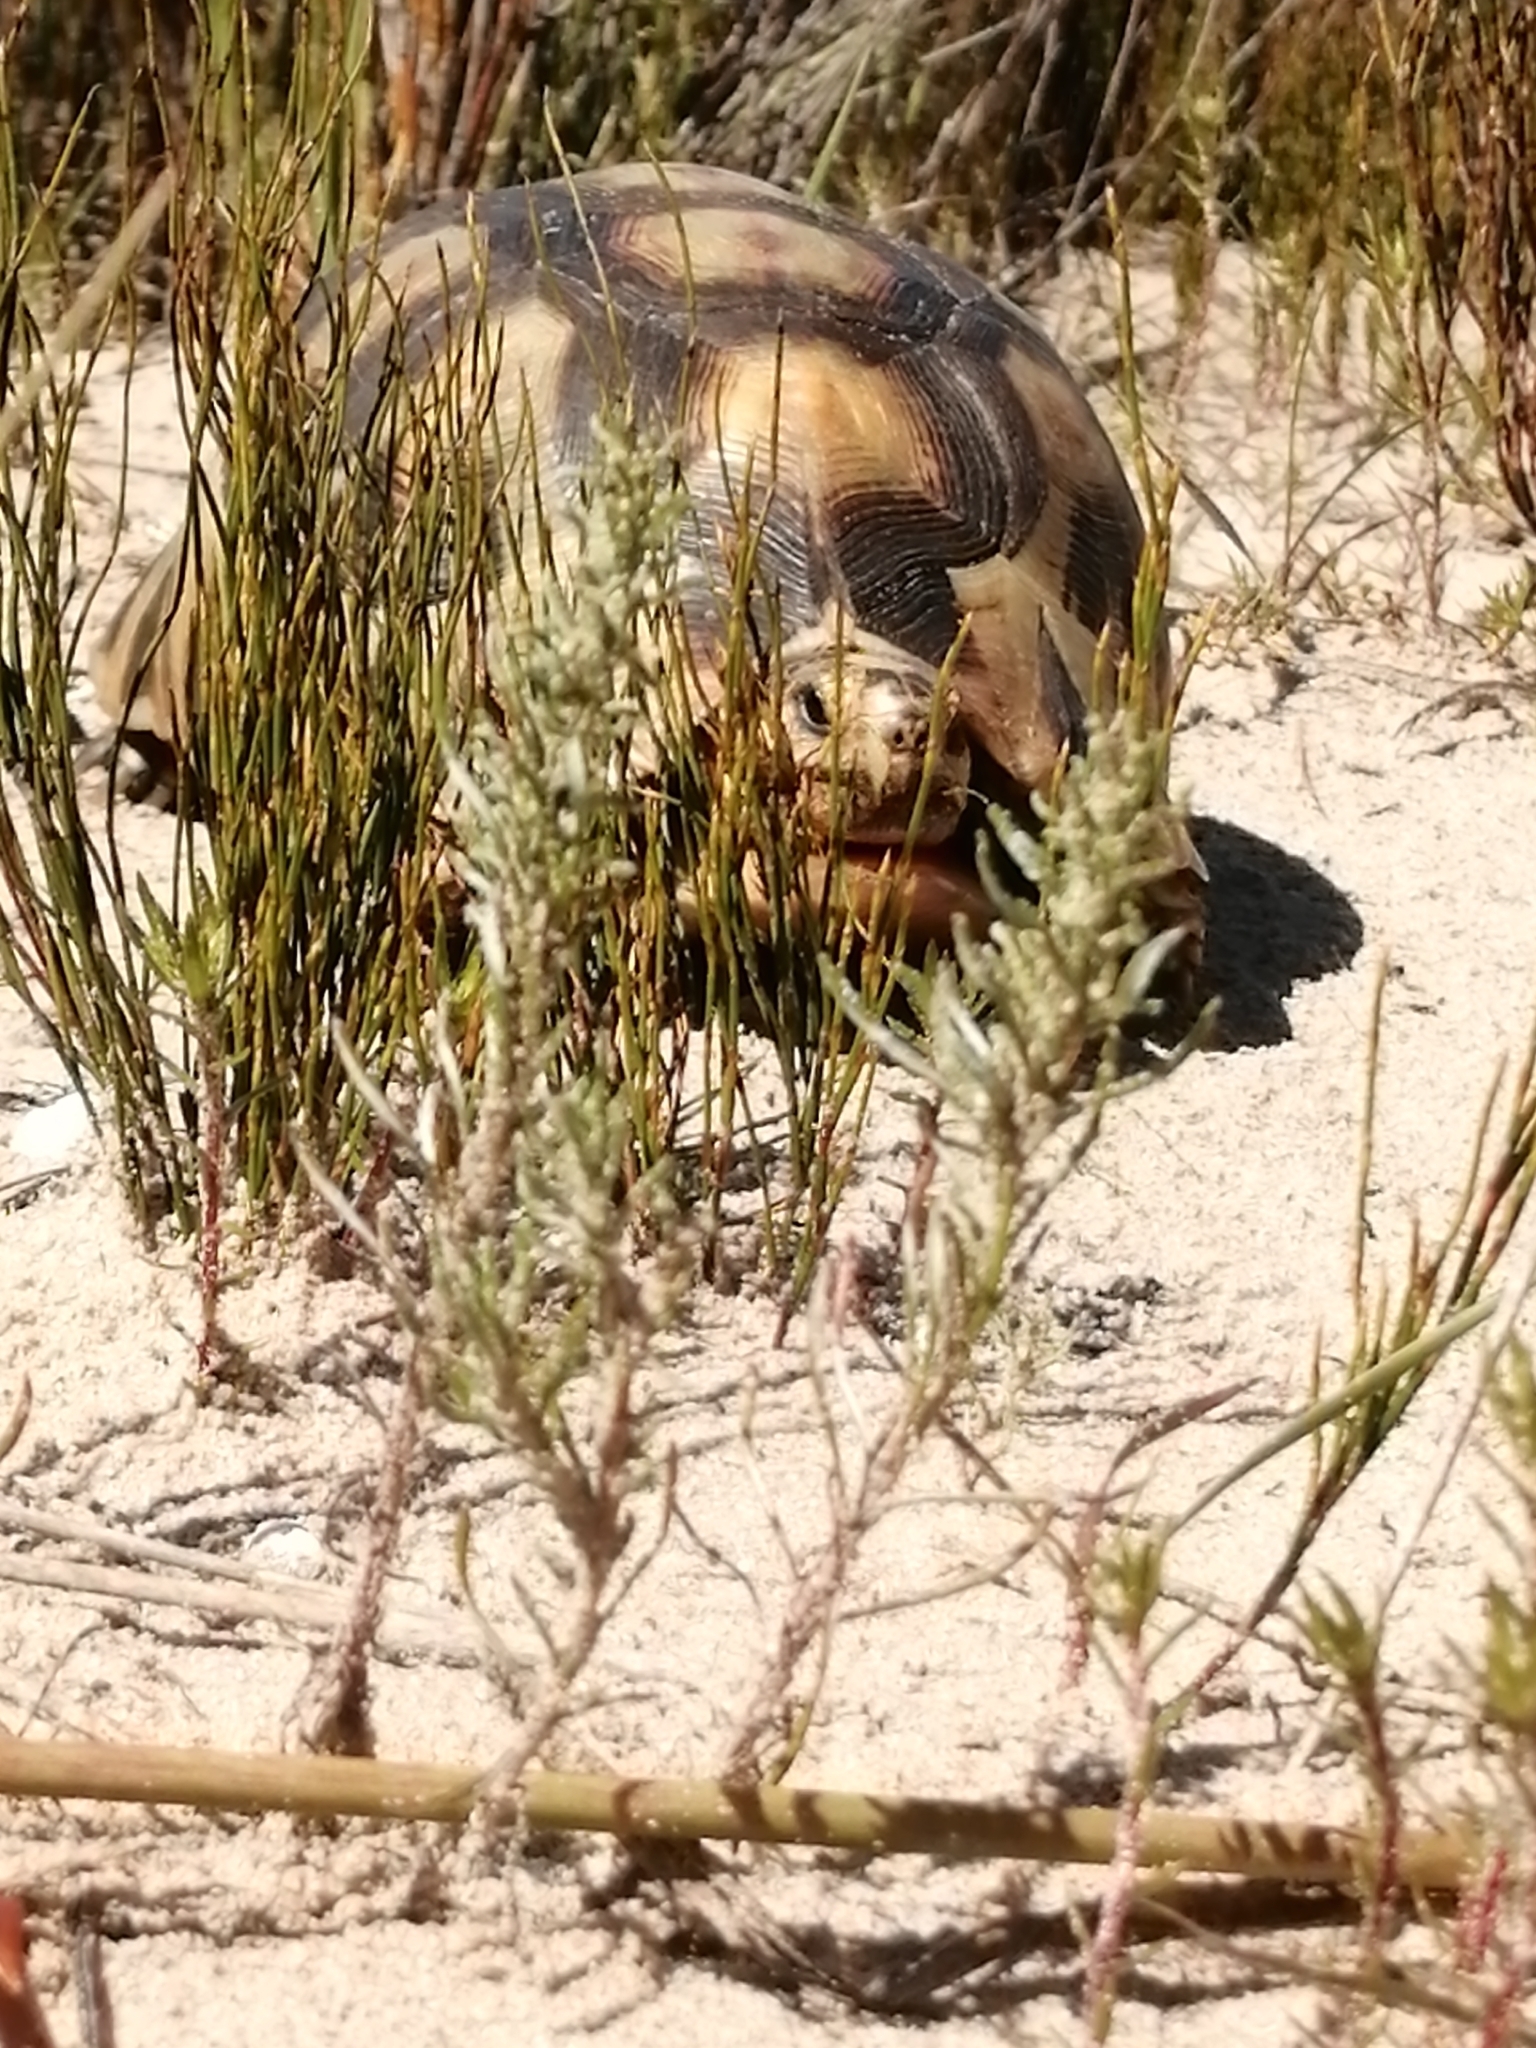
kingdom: Animalia
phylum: Chordata
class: Testudines
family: Testudinidae
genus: Chersina
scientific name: Chersina angulata
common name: South african bowsprit tortoise
